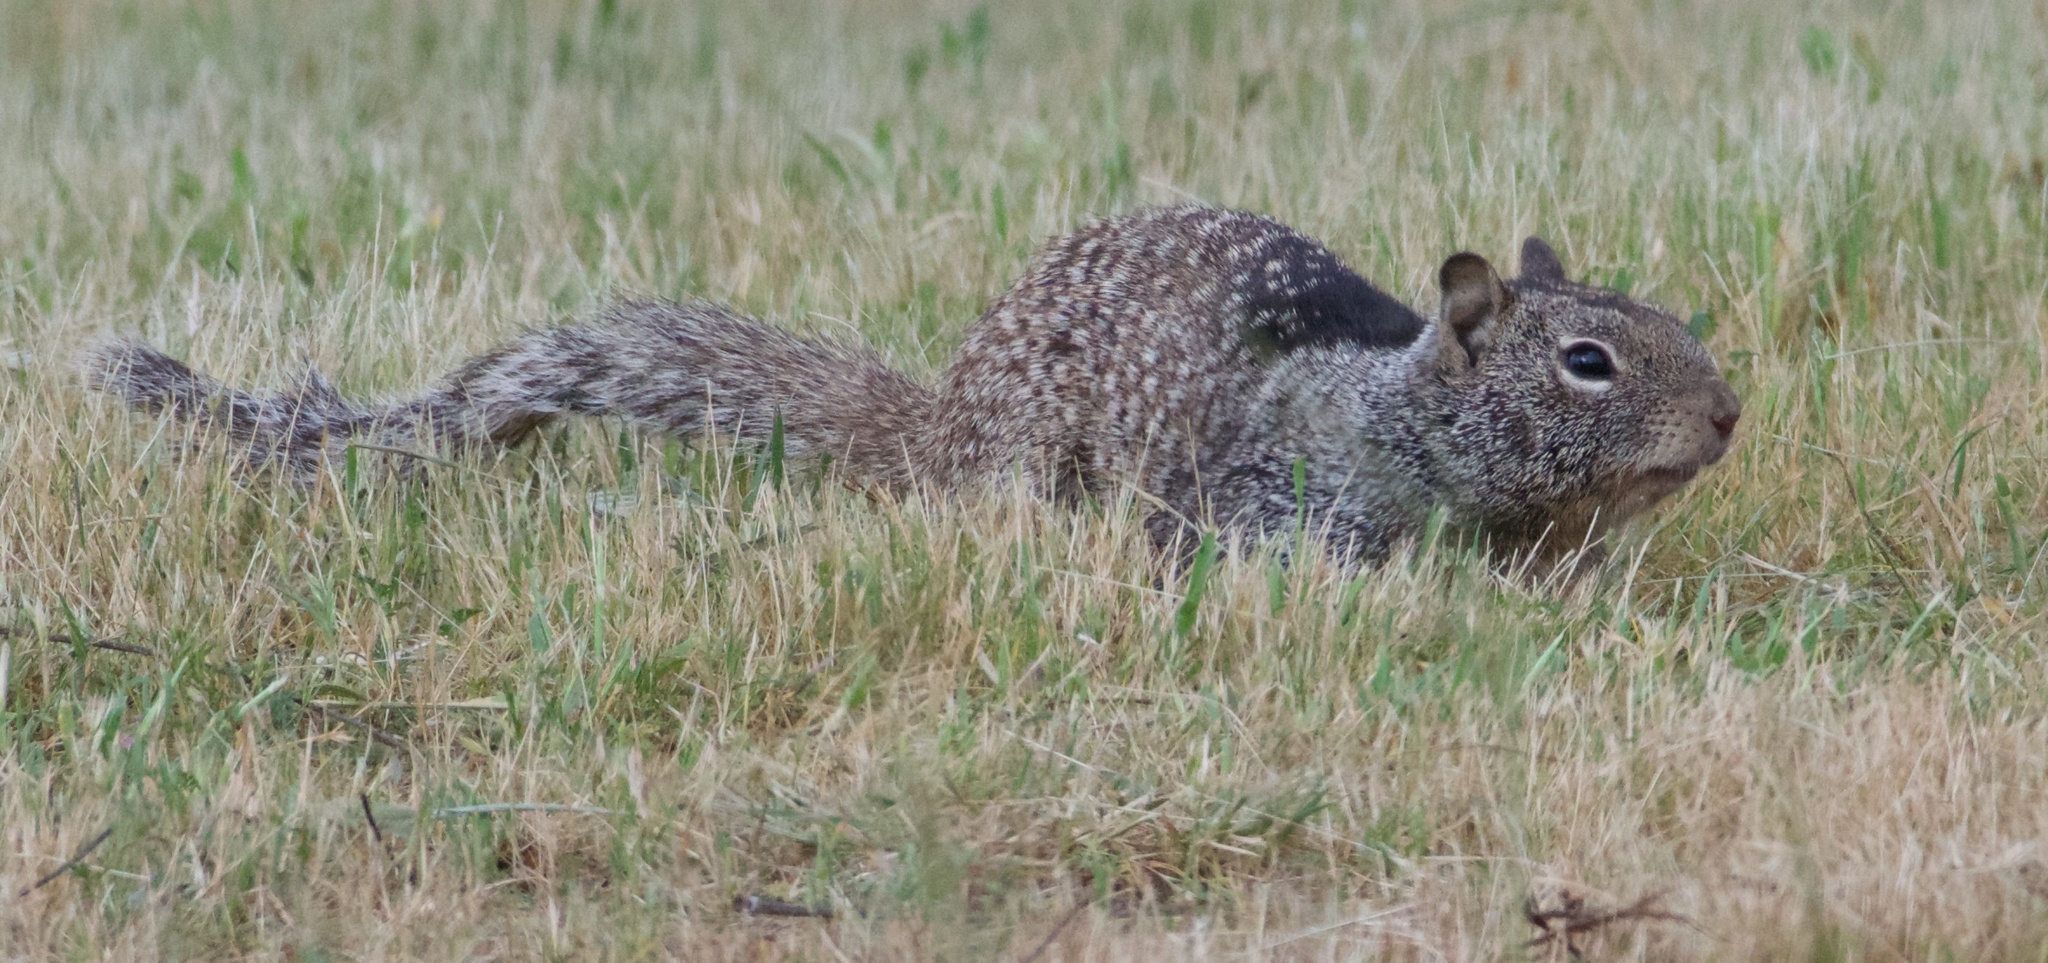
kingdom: Animalia
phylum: Chordata
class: Mammalia
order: Rodentia
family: Sciuridae
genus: Otospermophilus
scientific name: Otospermophilus beecheyi
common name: California ground squirrel
